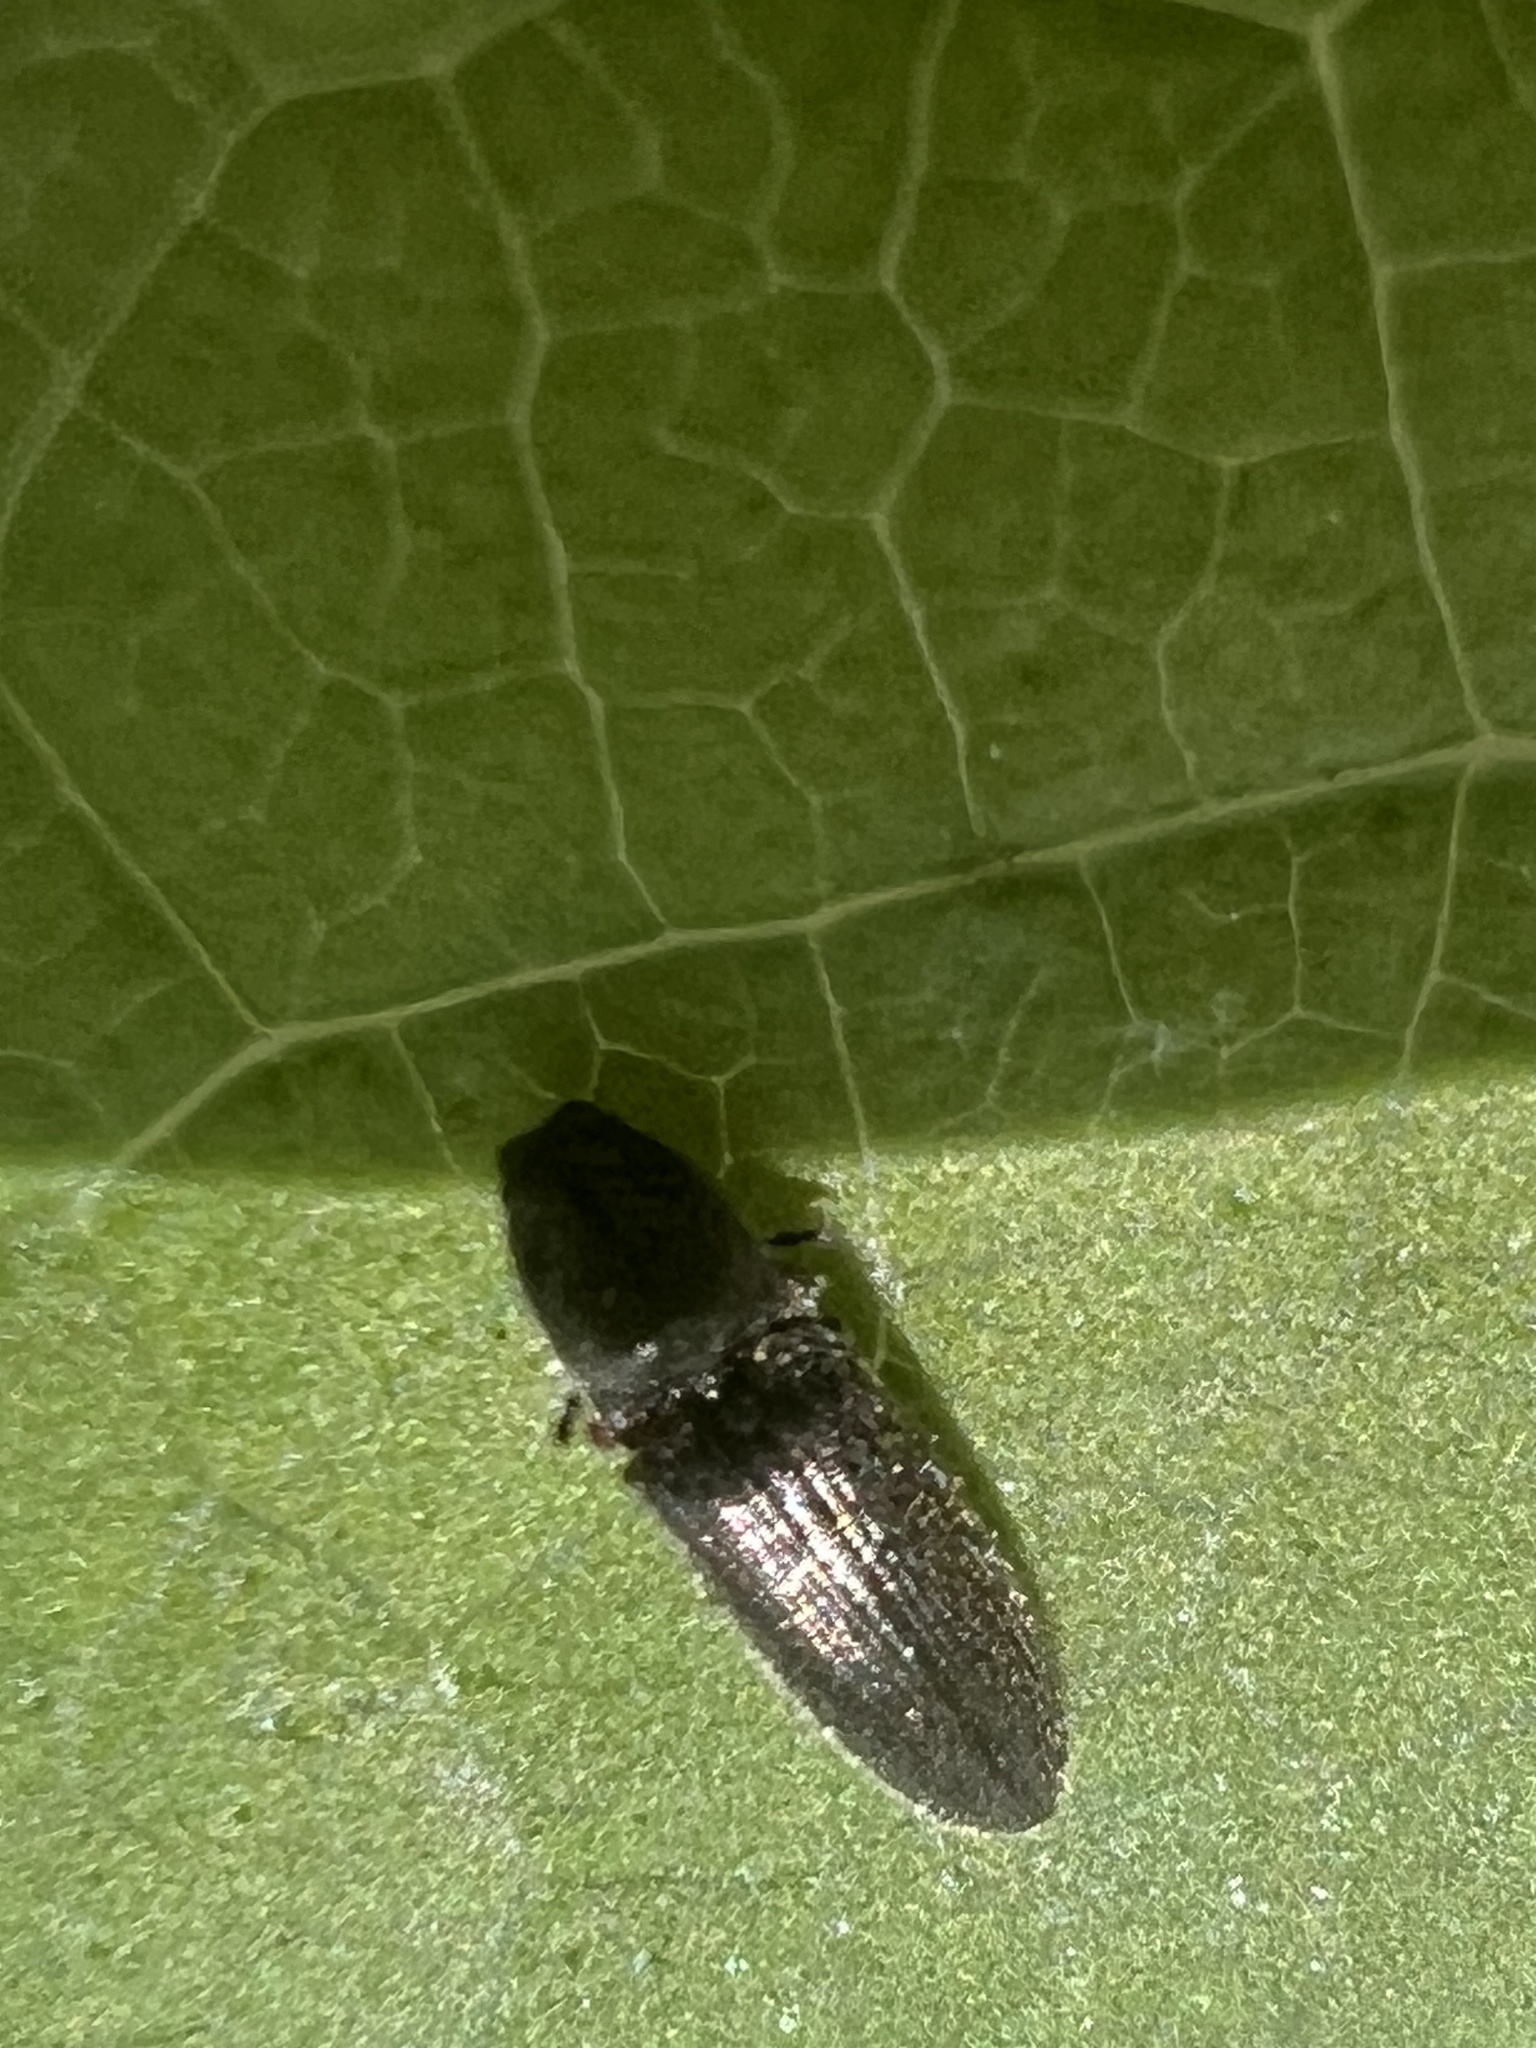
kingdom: Animalia
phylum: Arthropoda
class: Insecta
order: Coleoptera
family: Elateridae
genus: Limonius
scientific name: Limonius quercinus
